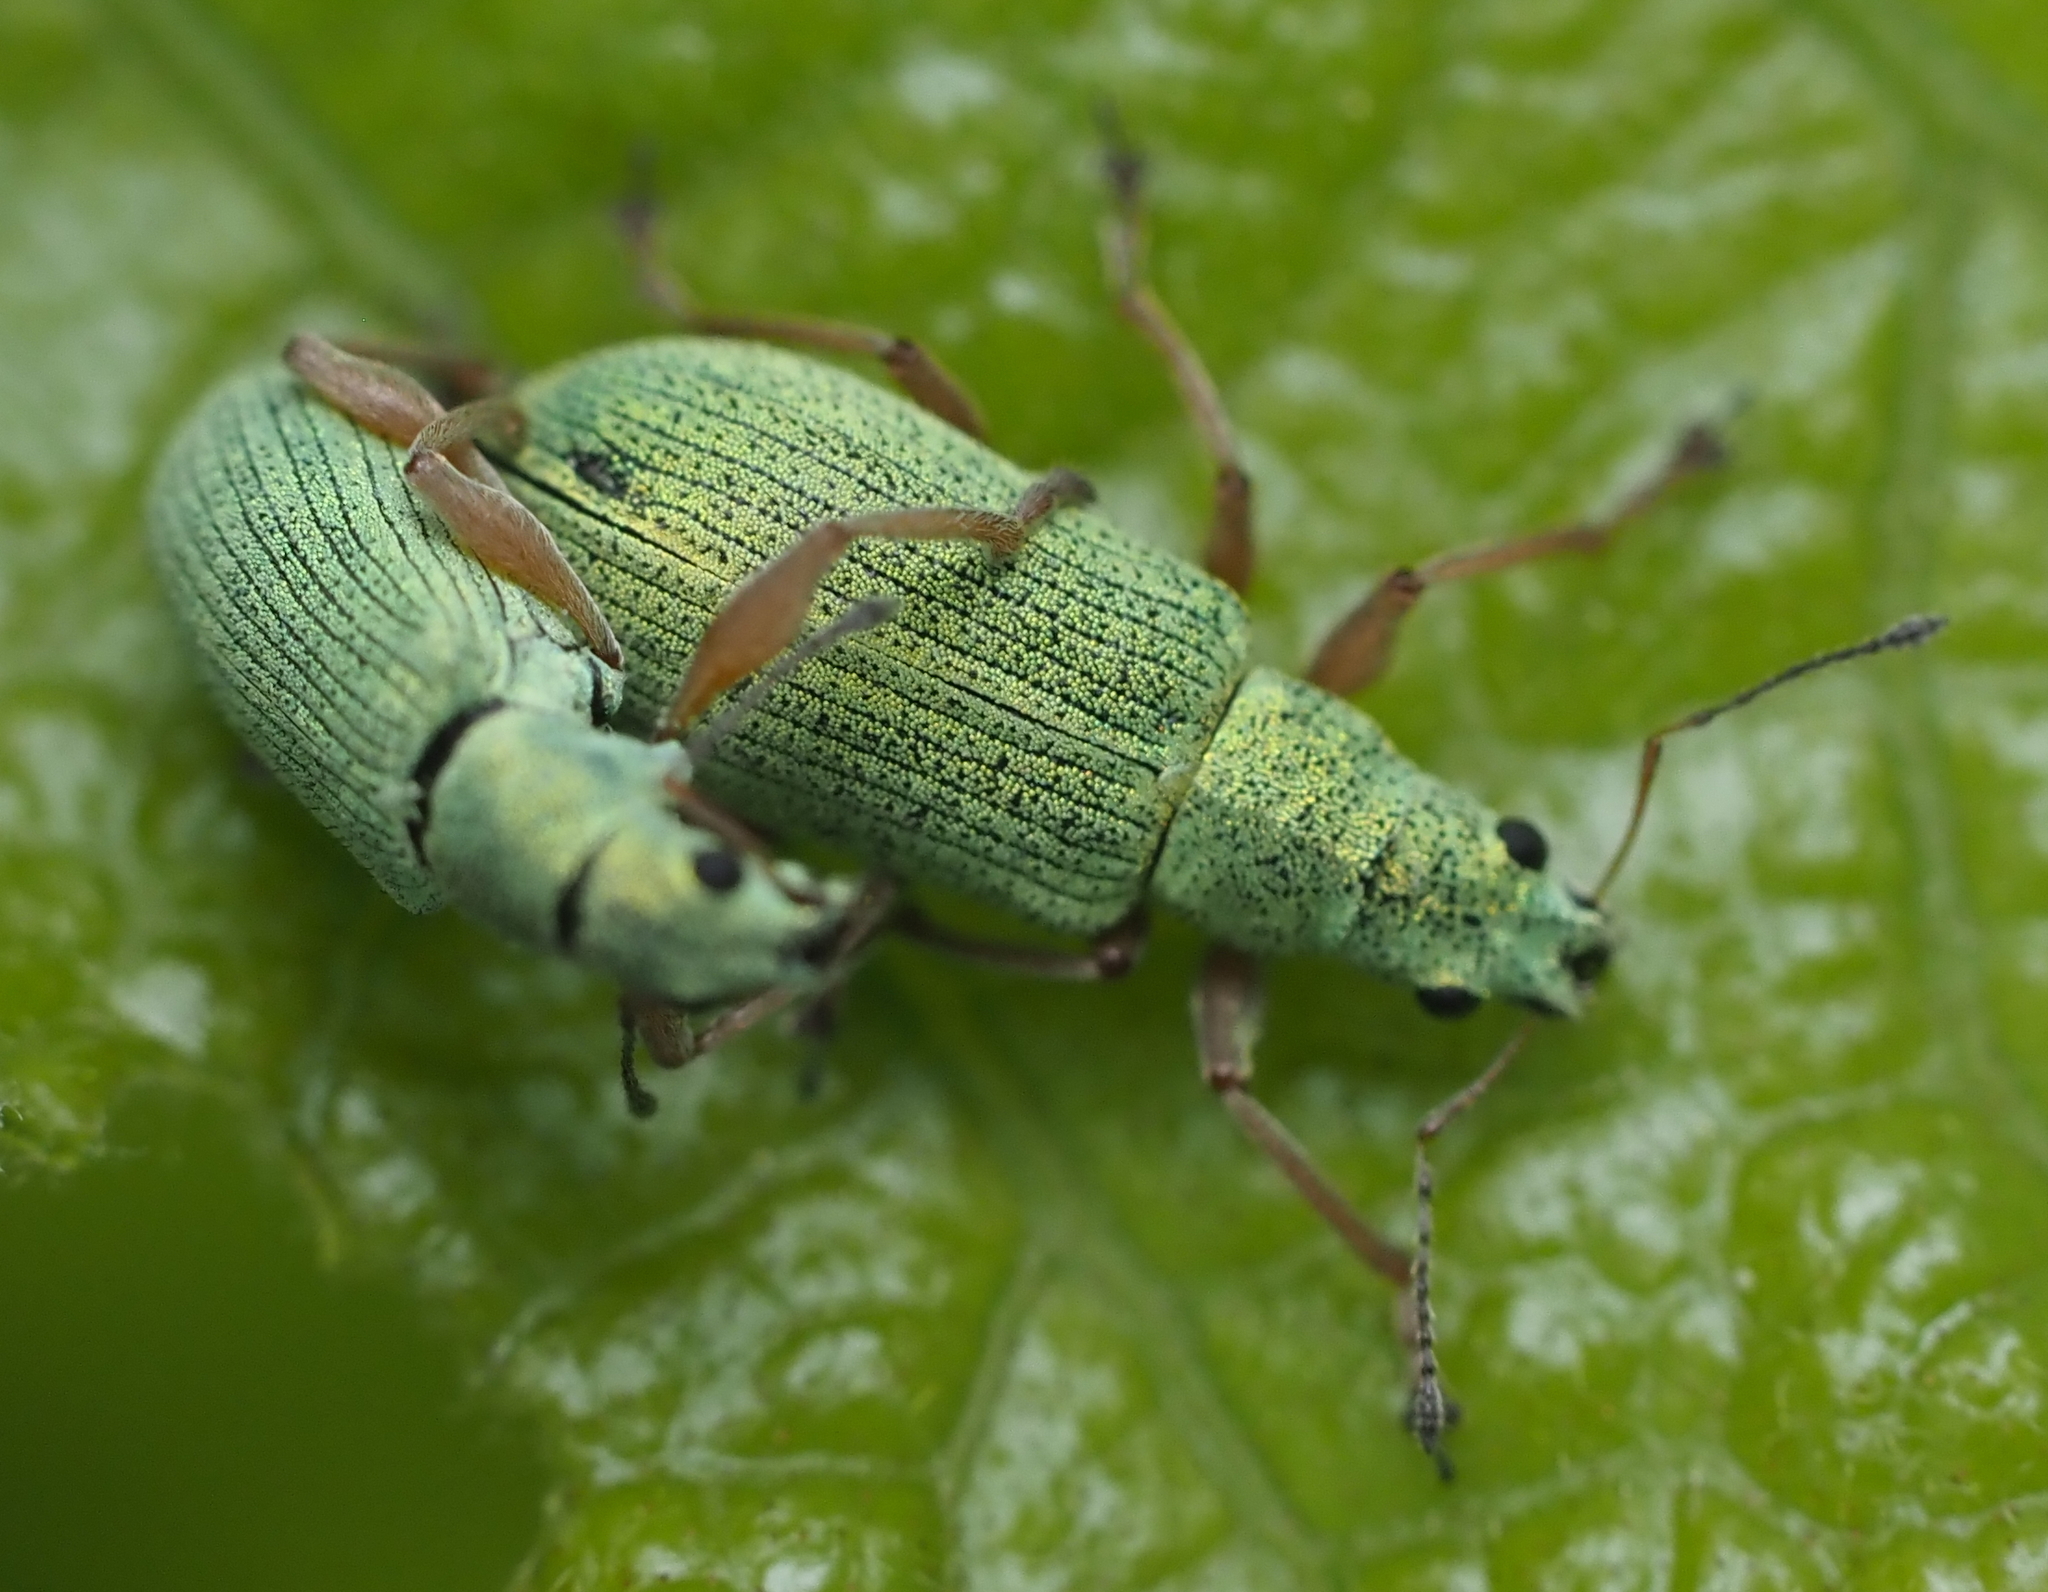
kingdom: Animalia
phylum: Arthropoda
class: Insecta
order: Coleoptera
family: Curculionidae
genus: Polydrusus
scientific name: Polydrusus impressifrons
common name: Weevil
